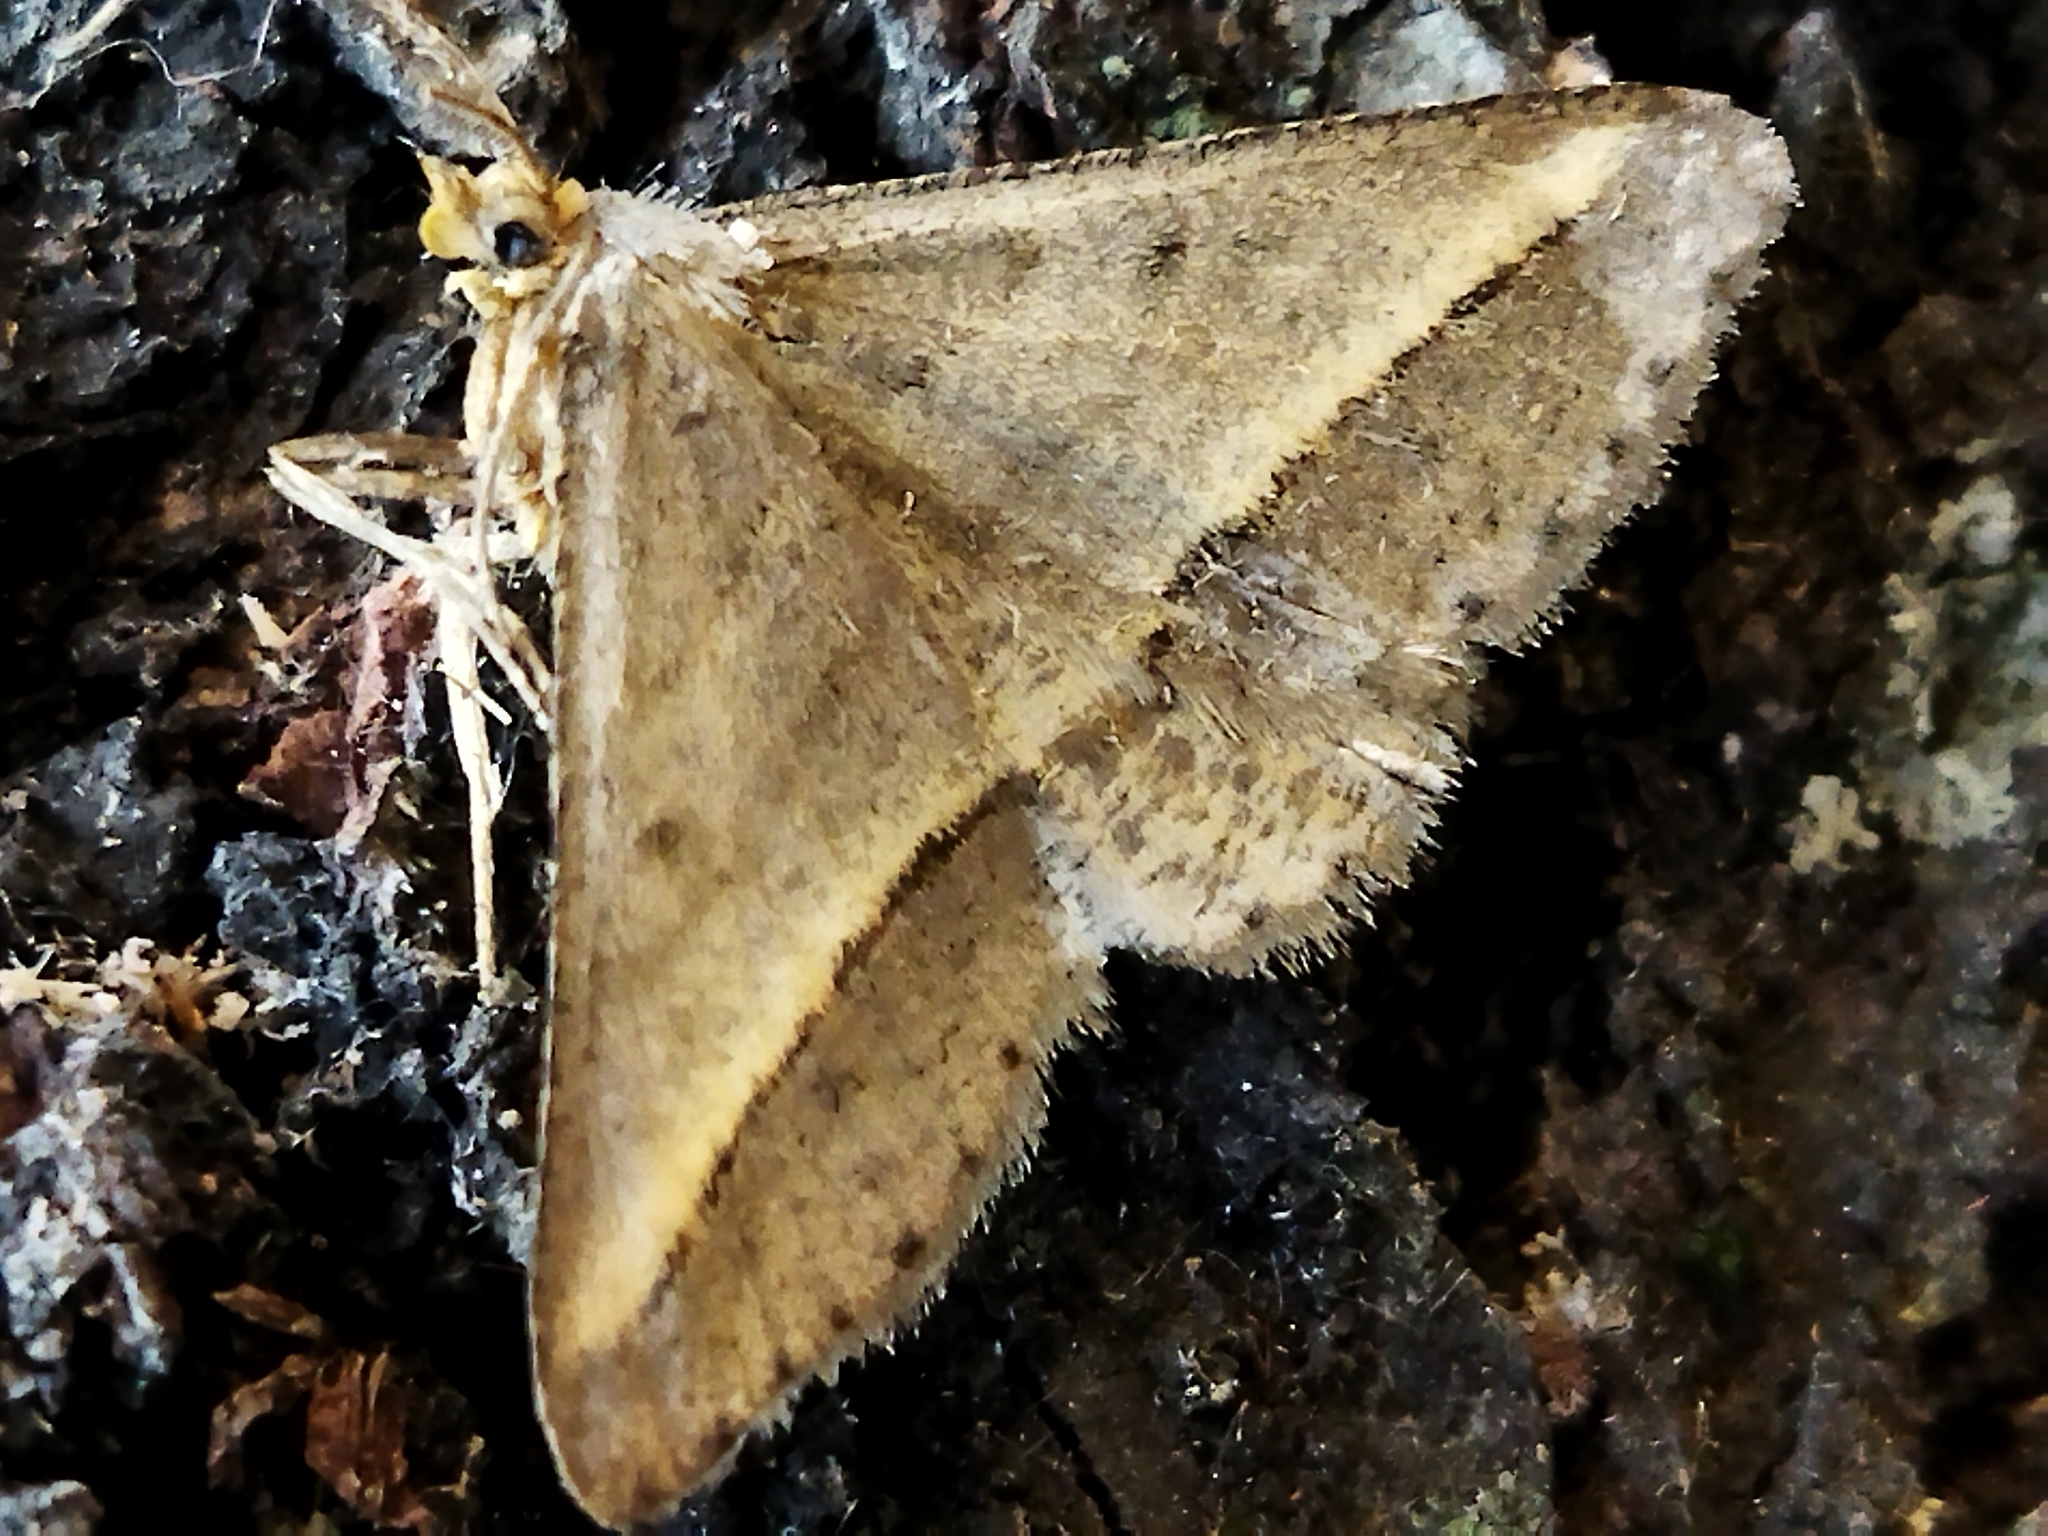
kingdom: Animalia
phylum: Arthropoda
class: Insecta
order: Lepidoptera
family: Geometridae
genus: Tephrina
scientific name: Tephrina arenacearia
